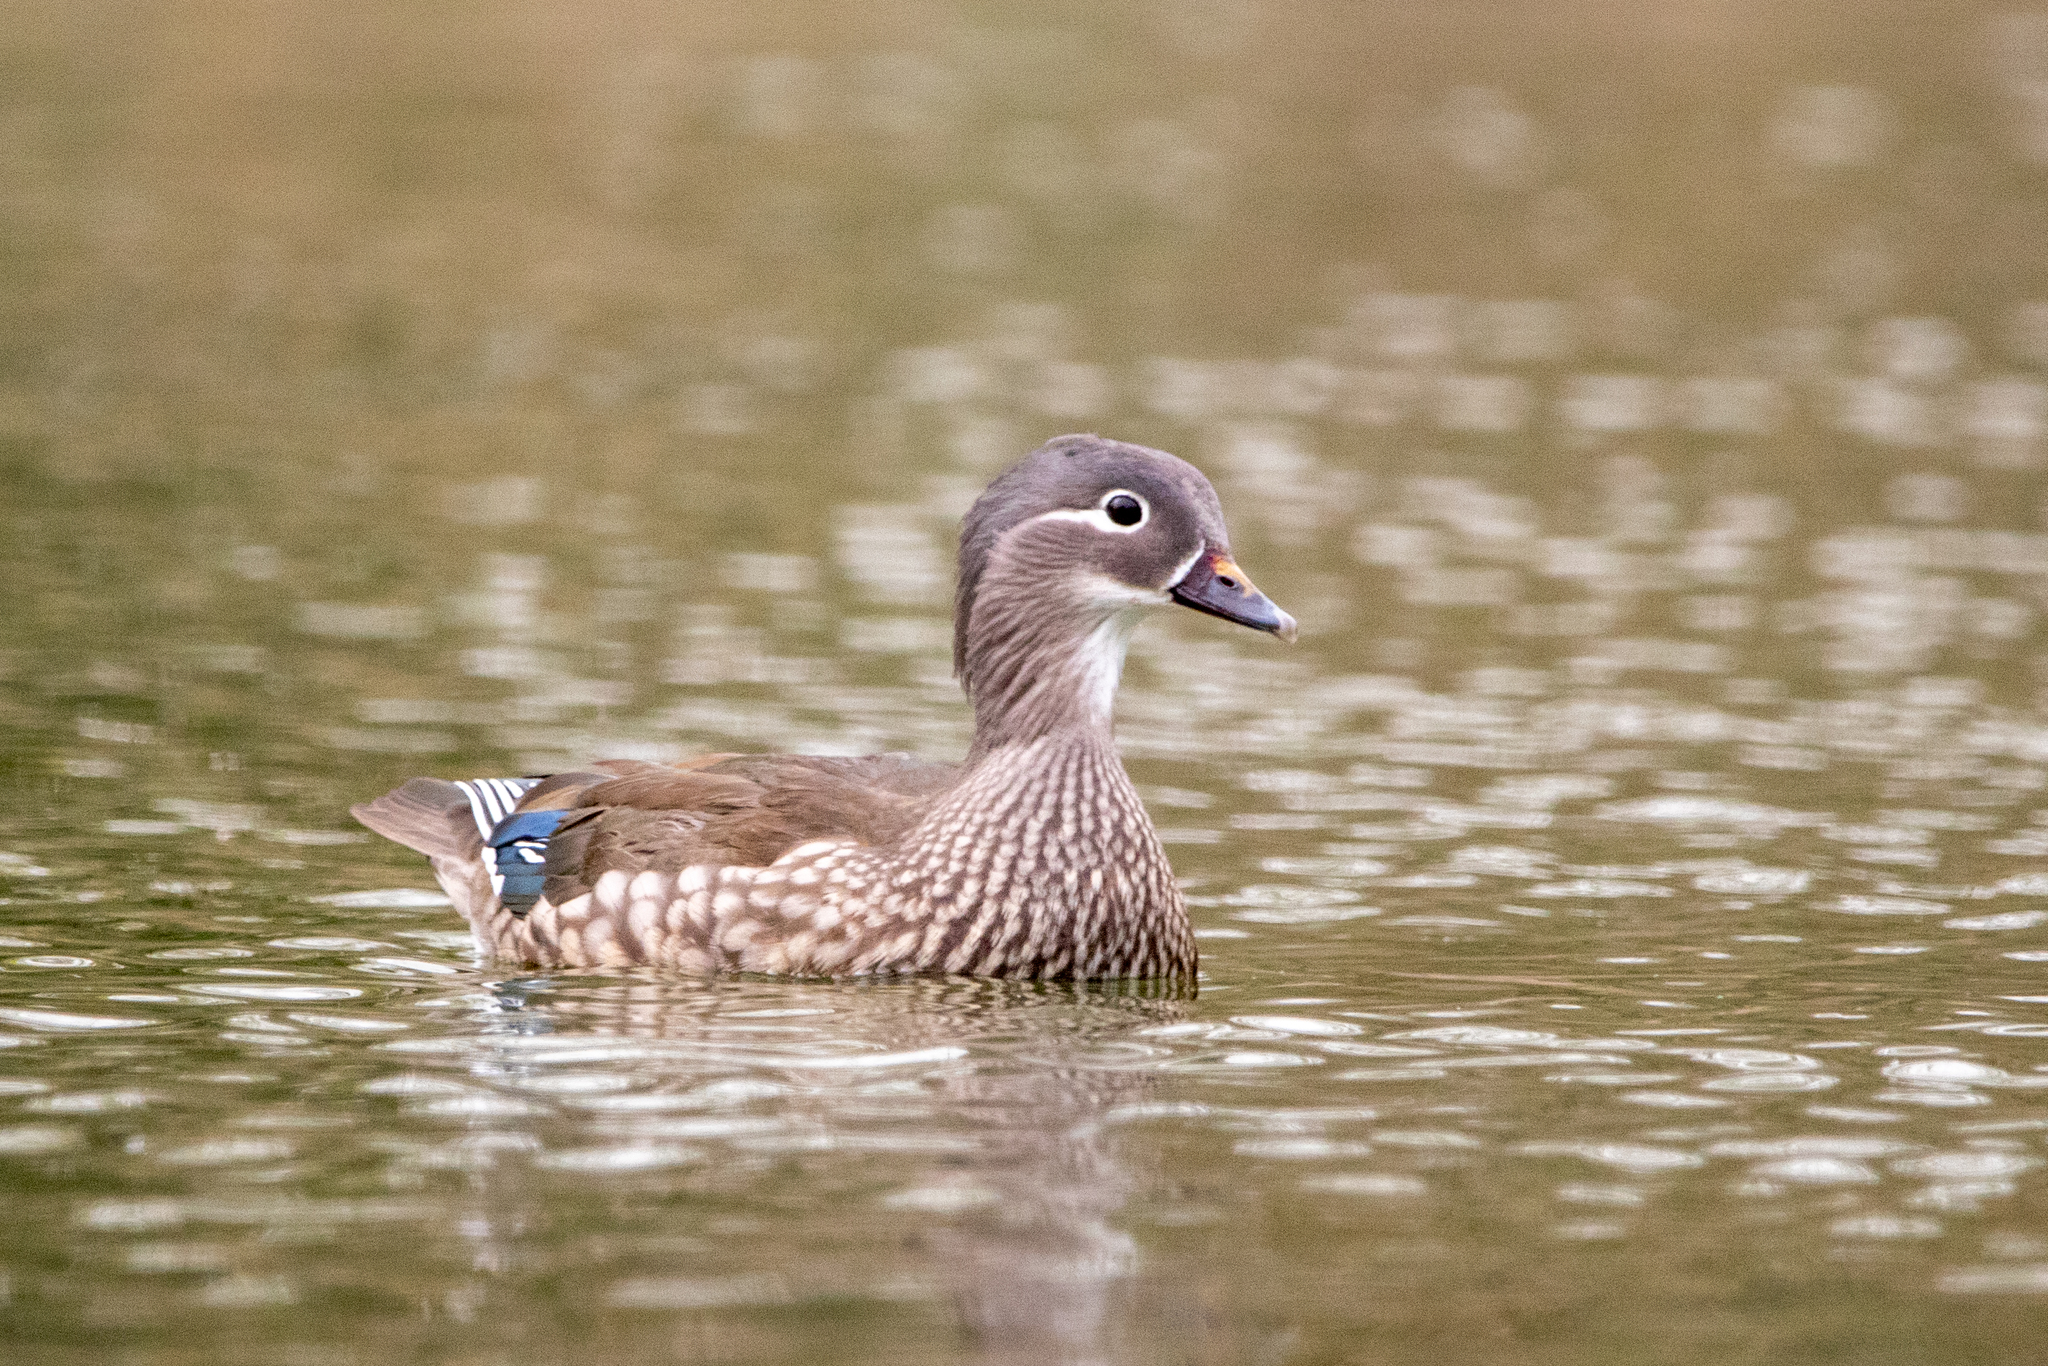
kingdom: Animalia
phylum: Chordata
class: Aves
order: Anseriformes
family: Anatidae
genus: Aix
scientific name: Aix galericulata
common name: Mandarin duck
